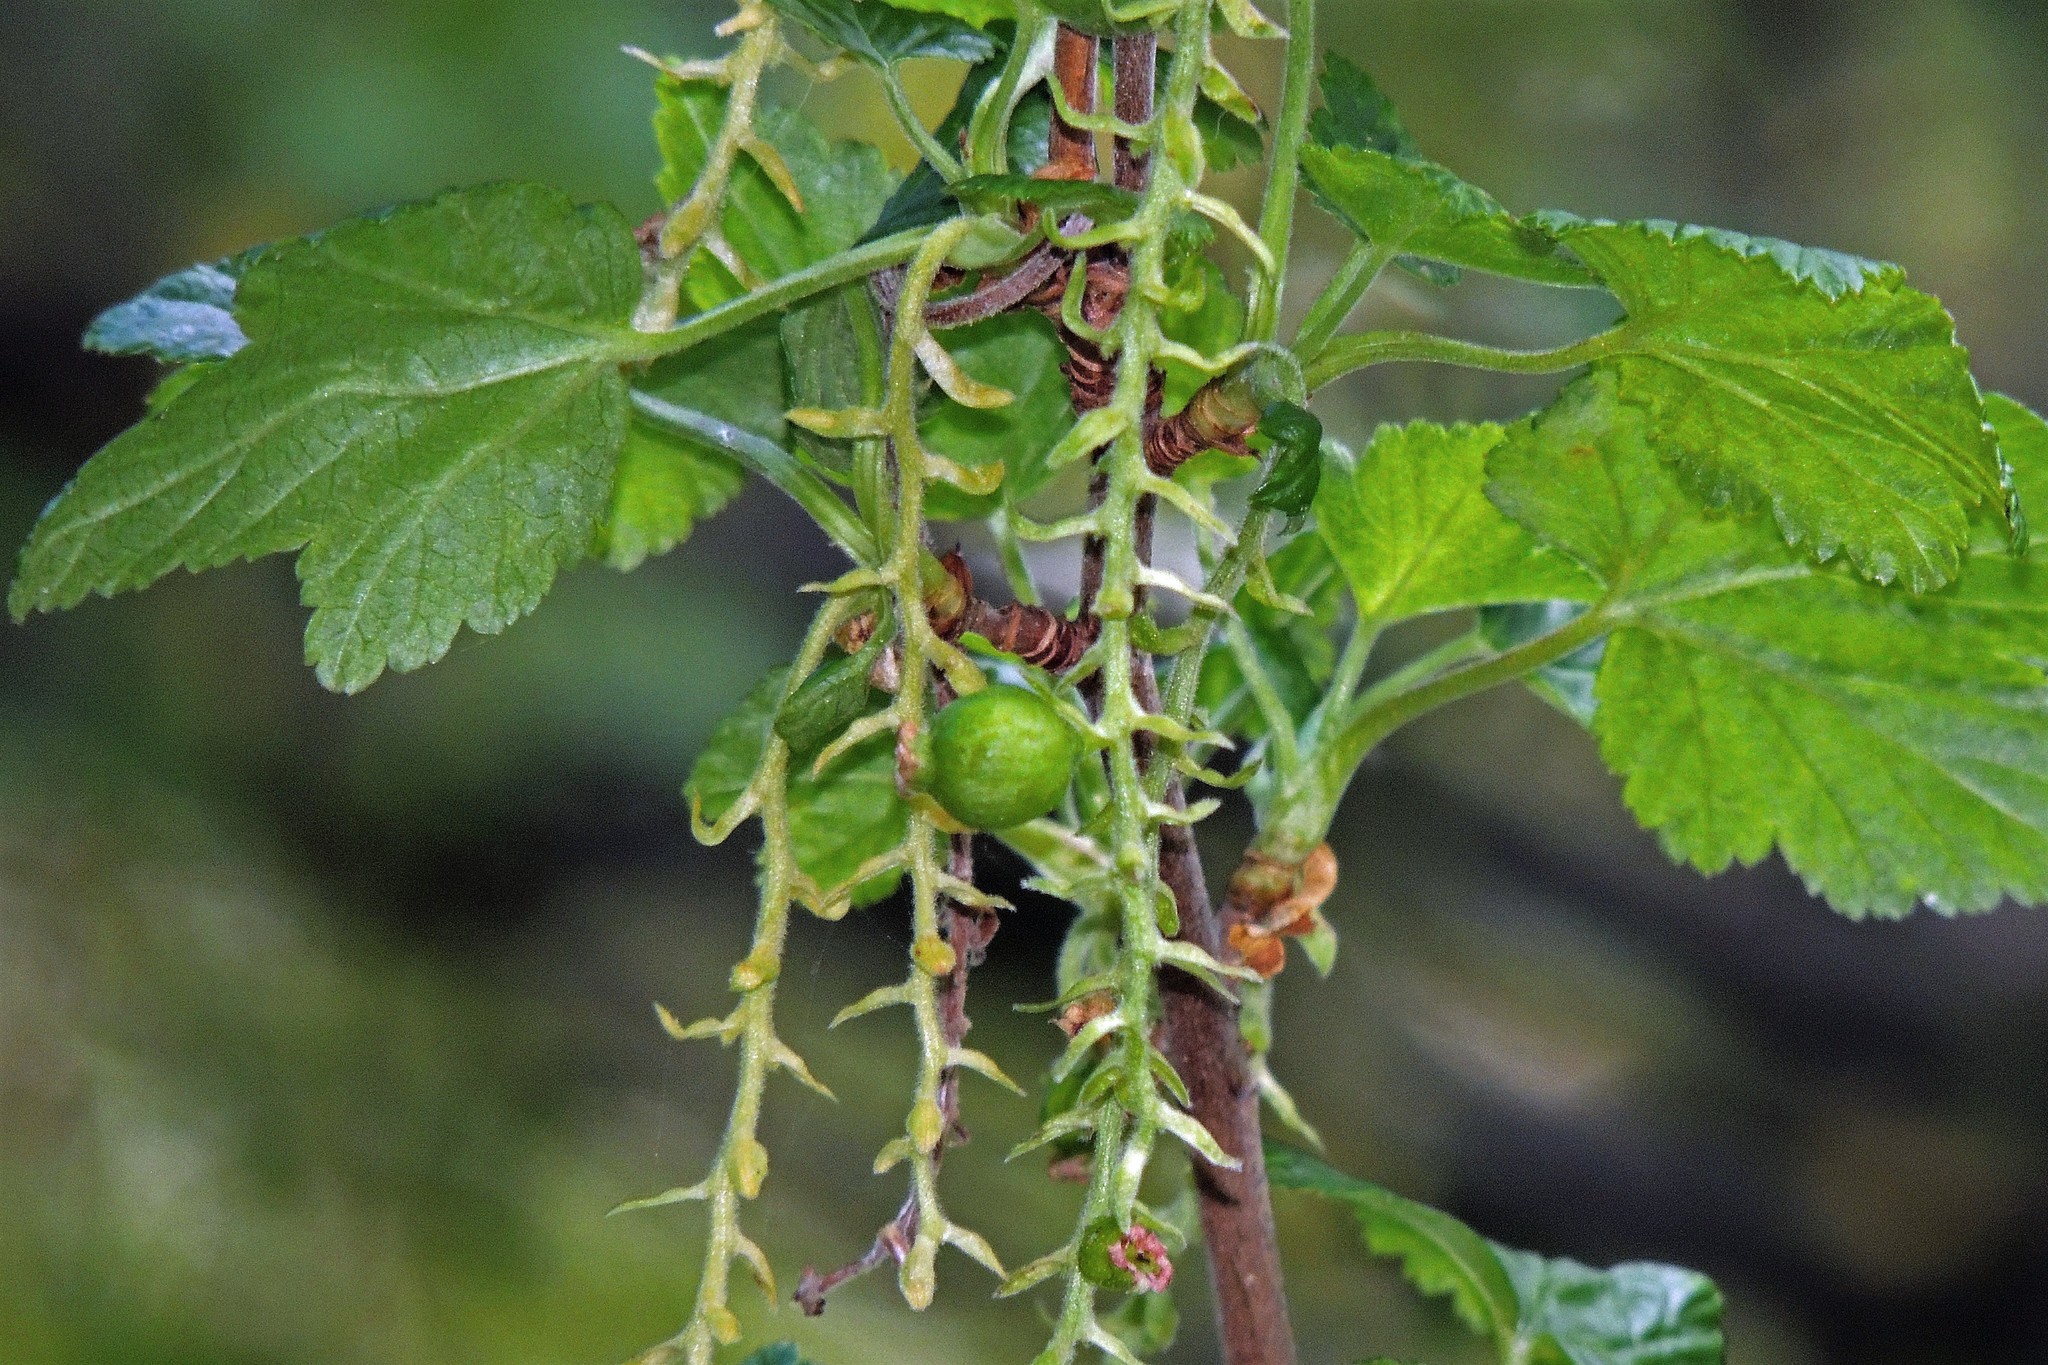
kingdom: Plantae
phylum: Tracheophyta
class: Magnoliopsida
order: Saxifragales
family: Grossulariaceae
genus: Ribes
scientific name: Ribes magellanicum
